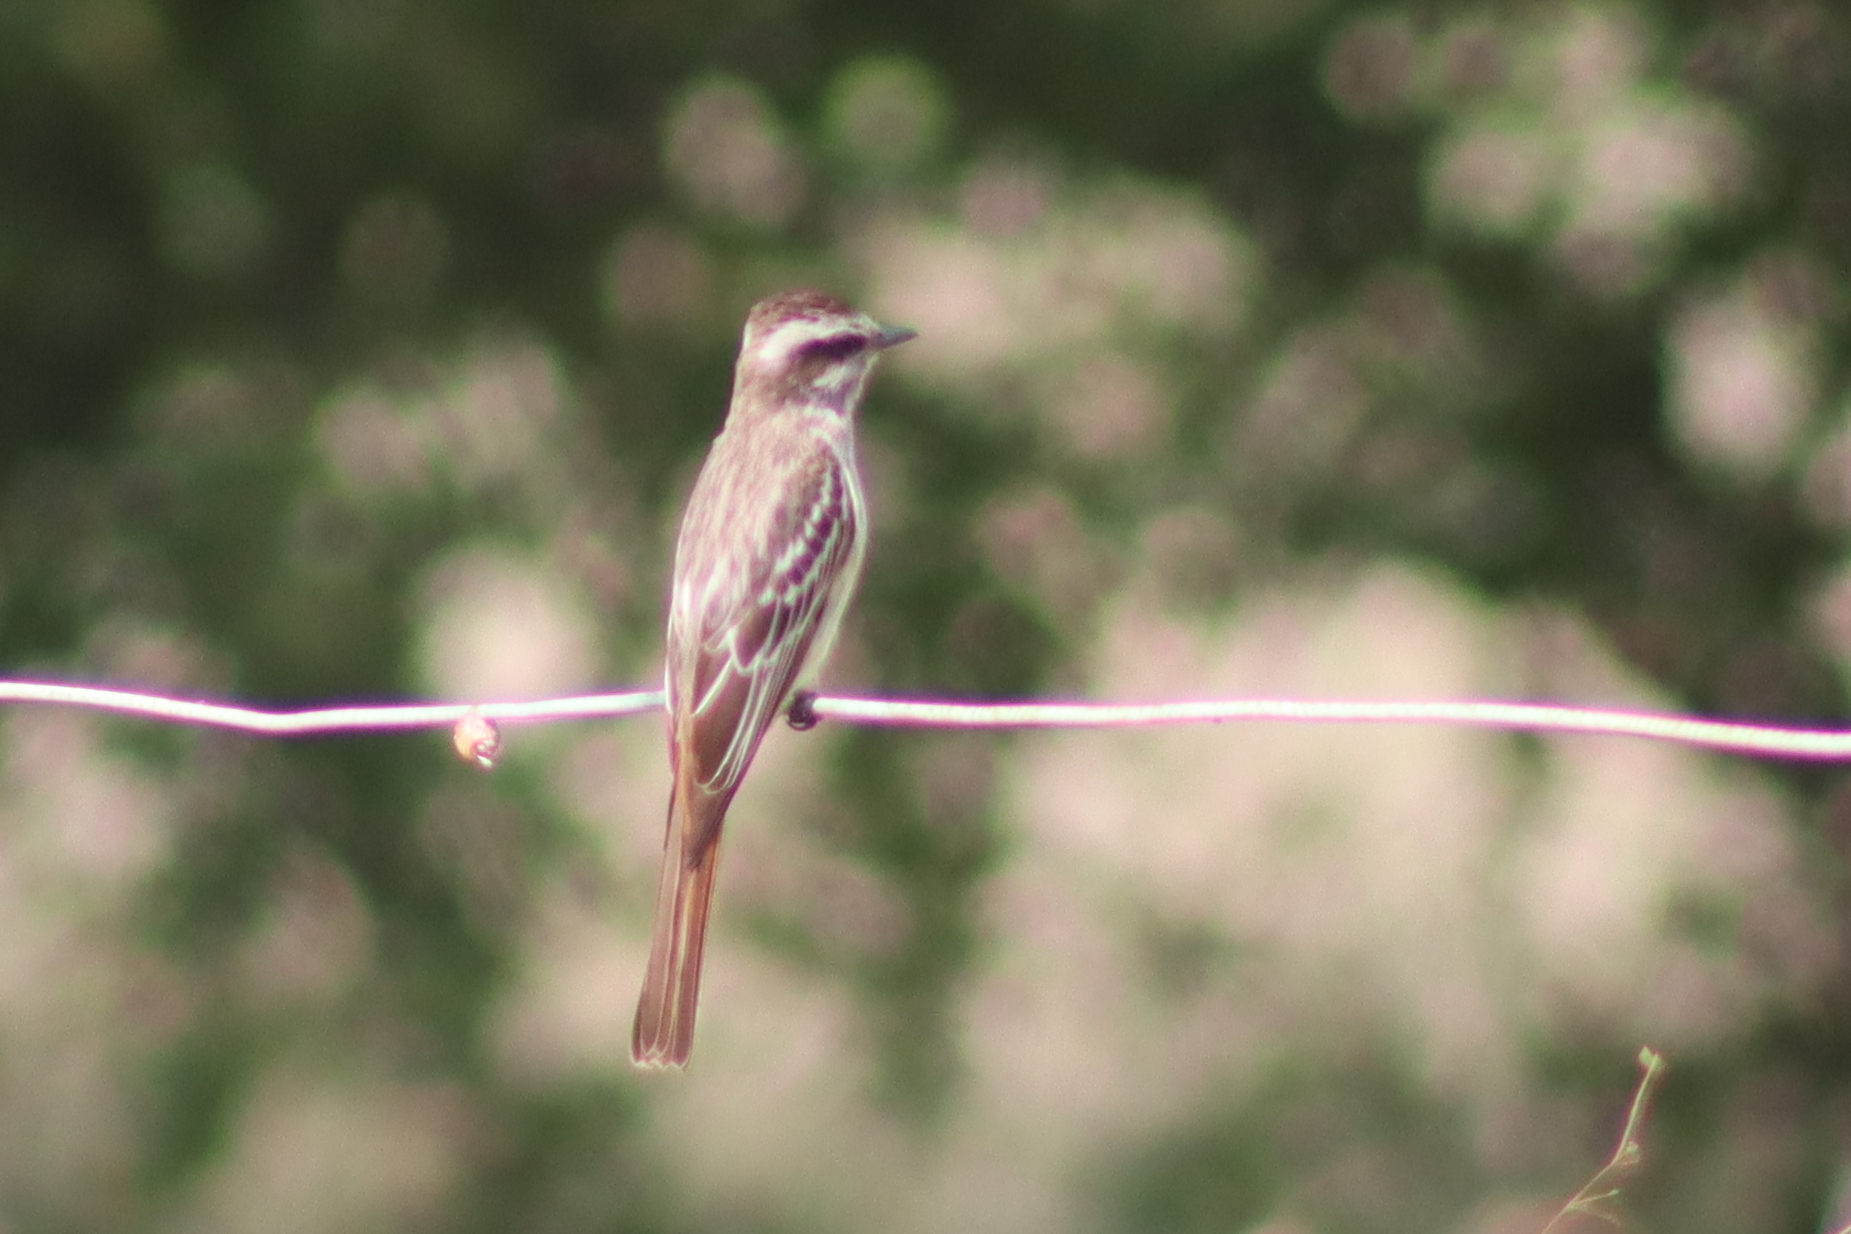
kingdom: Animalia
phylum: Chordata
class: Aves
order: Passeriformes
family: Tyrannidae
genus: Empidonomus
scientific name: Empidonomus varius
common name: Variegated flycatcher
